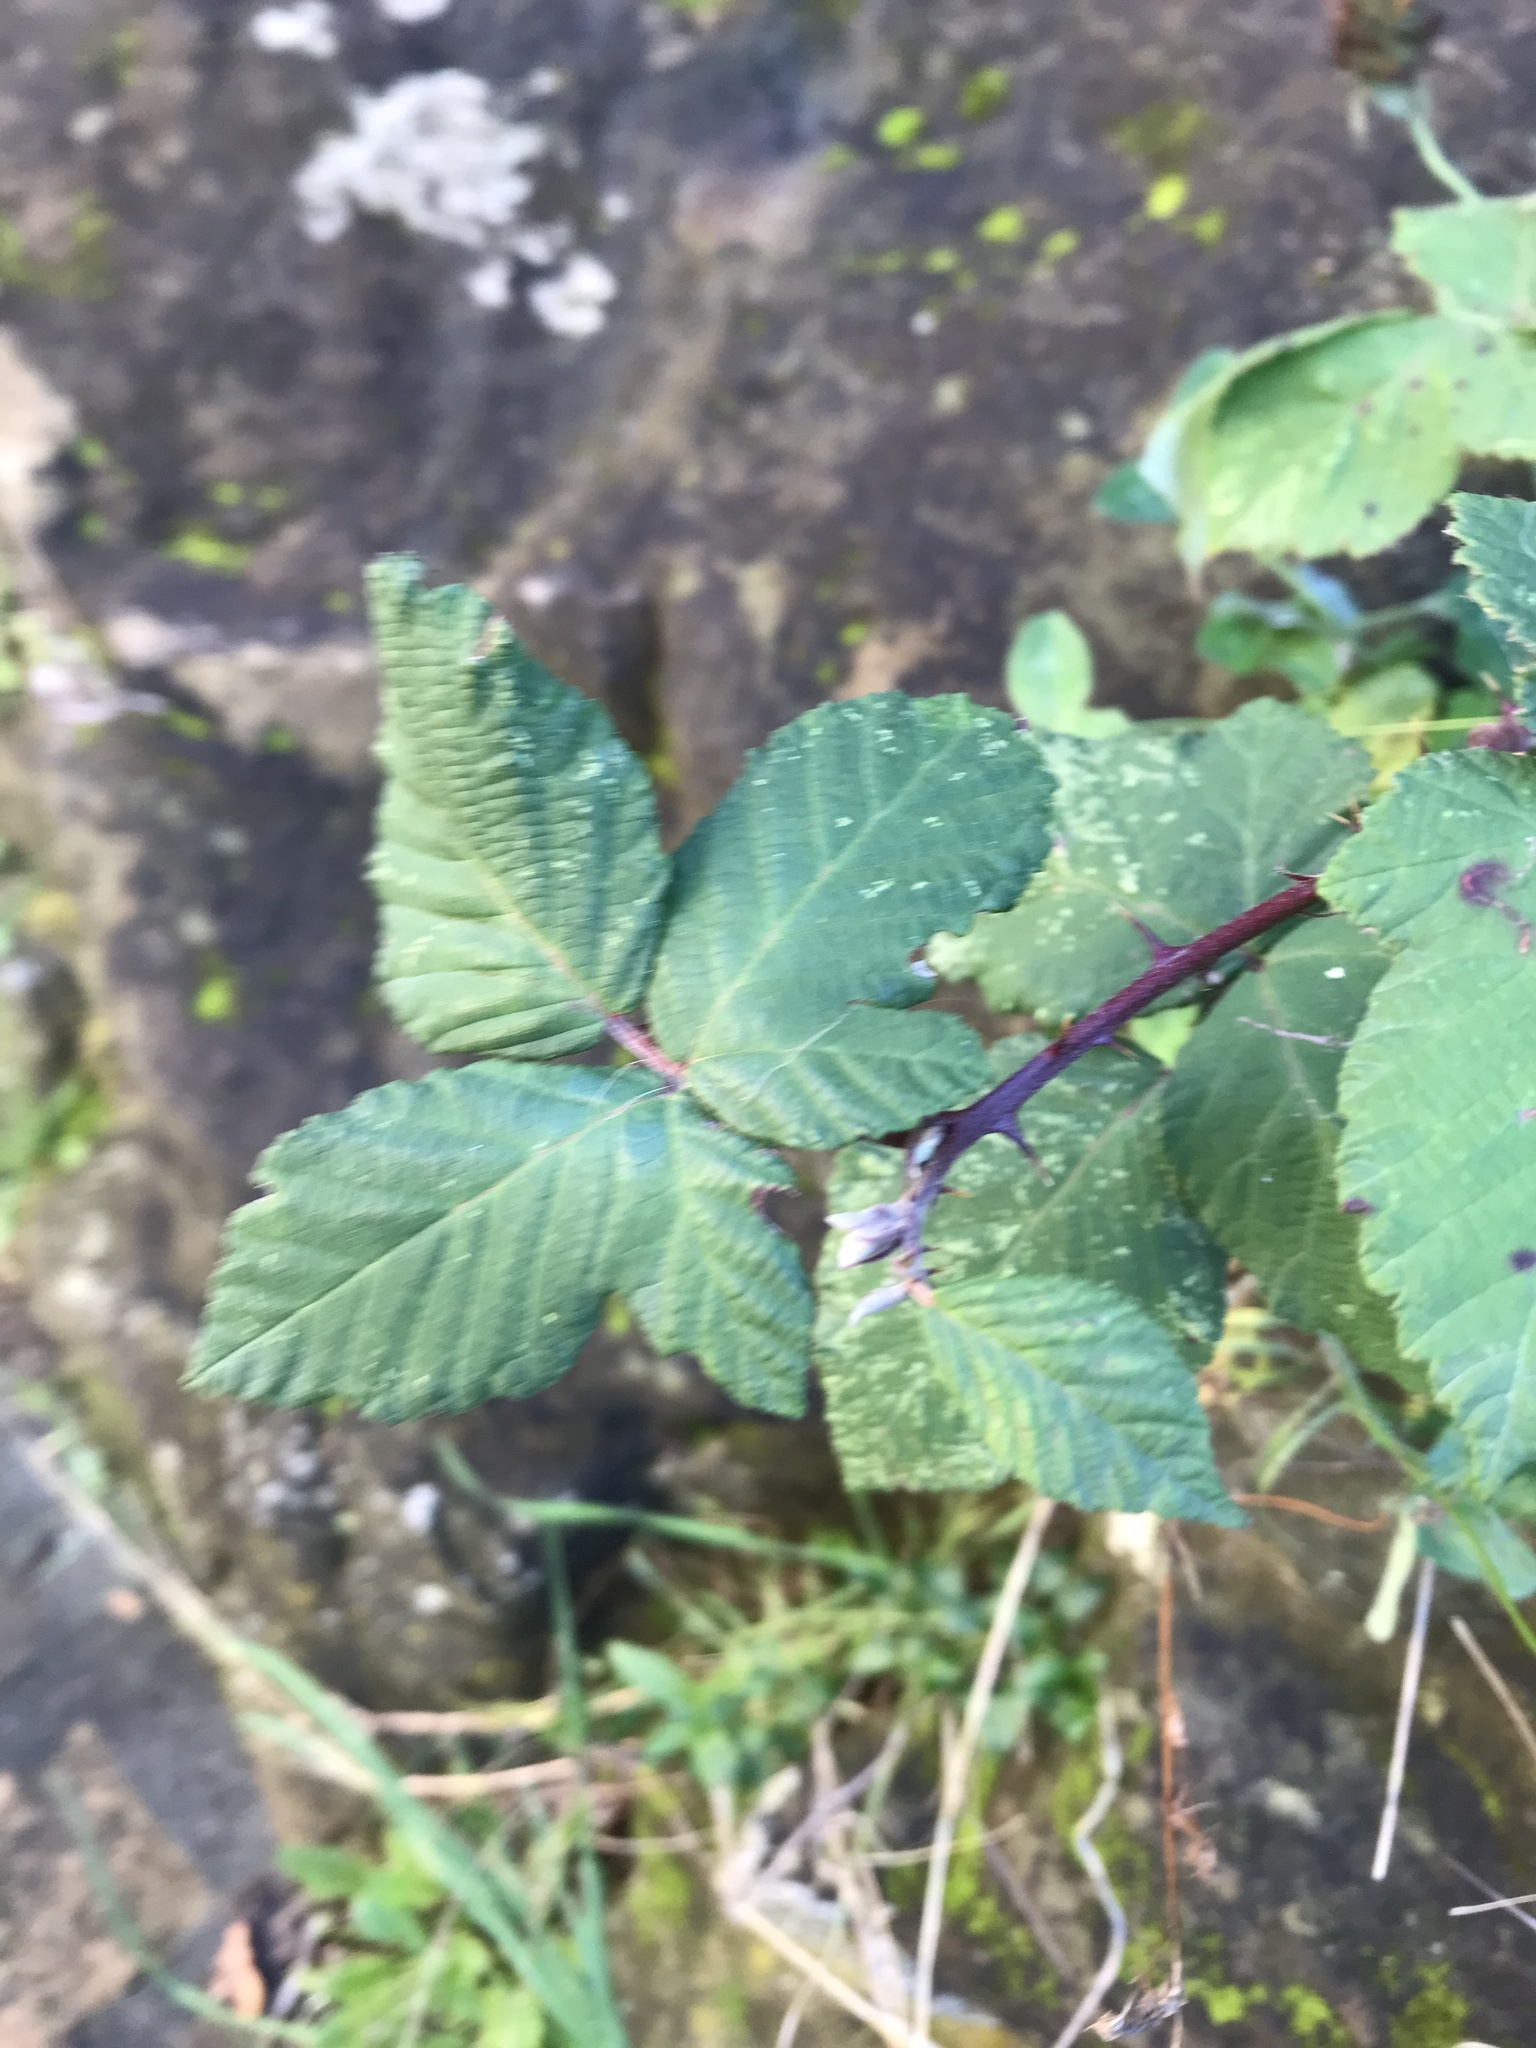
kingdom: Plantae
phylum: Tracheophyta
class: Magnoliopsida
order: Rosales
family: Rosaceae
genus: Rubus
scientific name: Rubus armeniacus
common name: Himalayan blackberry
